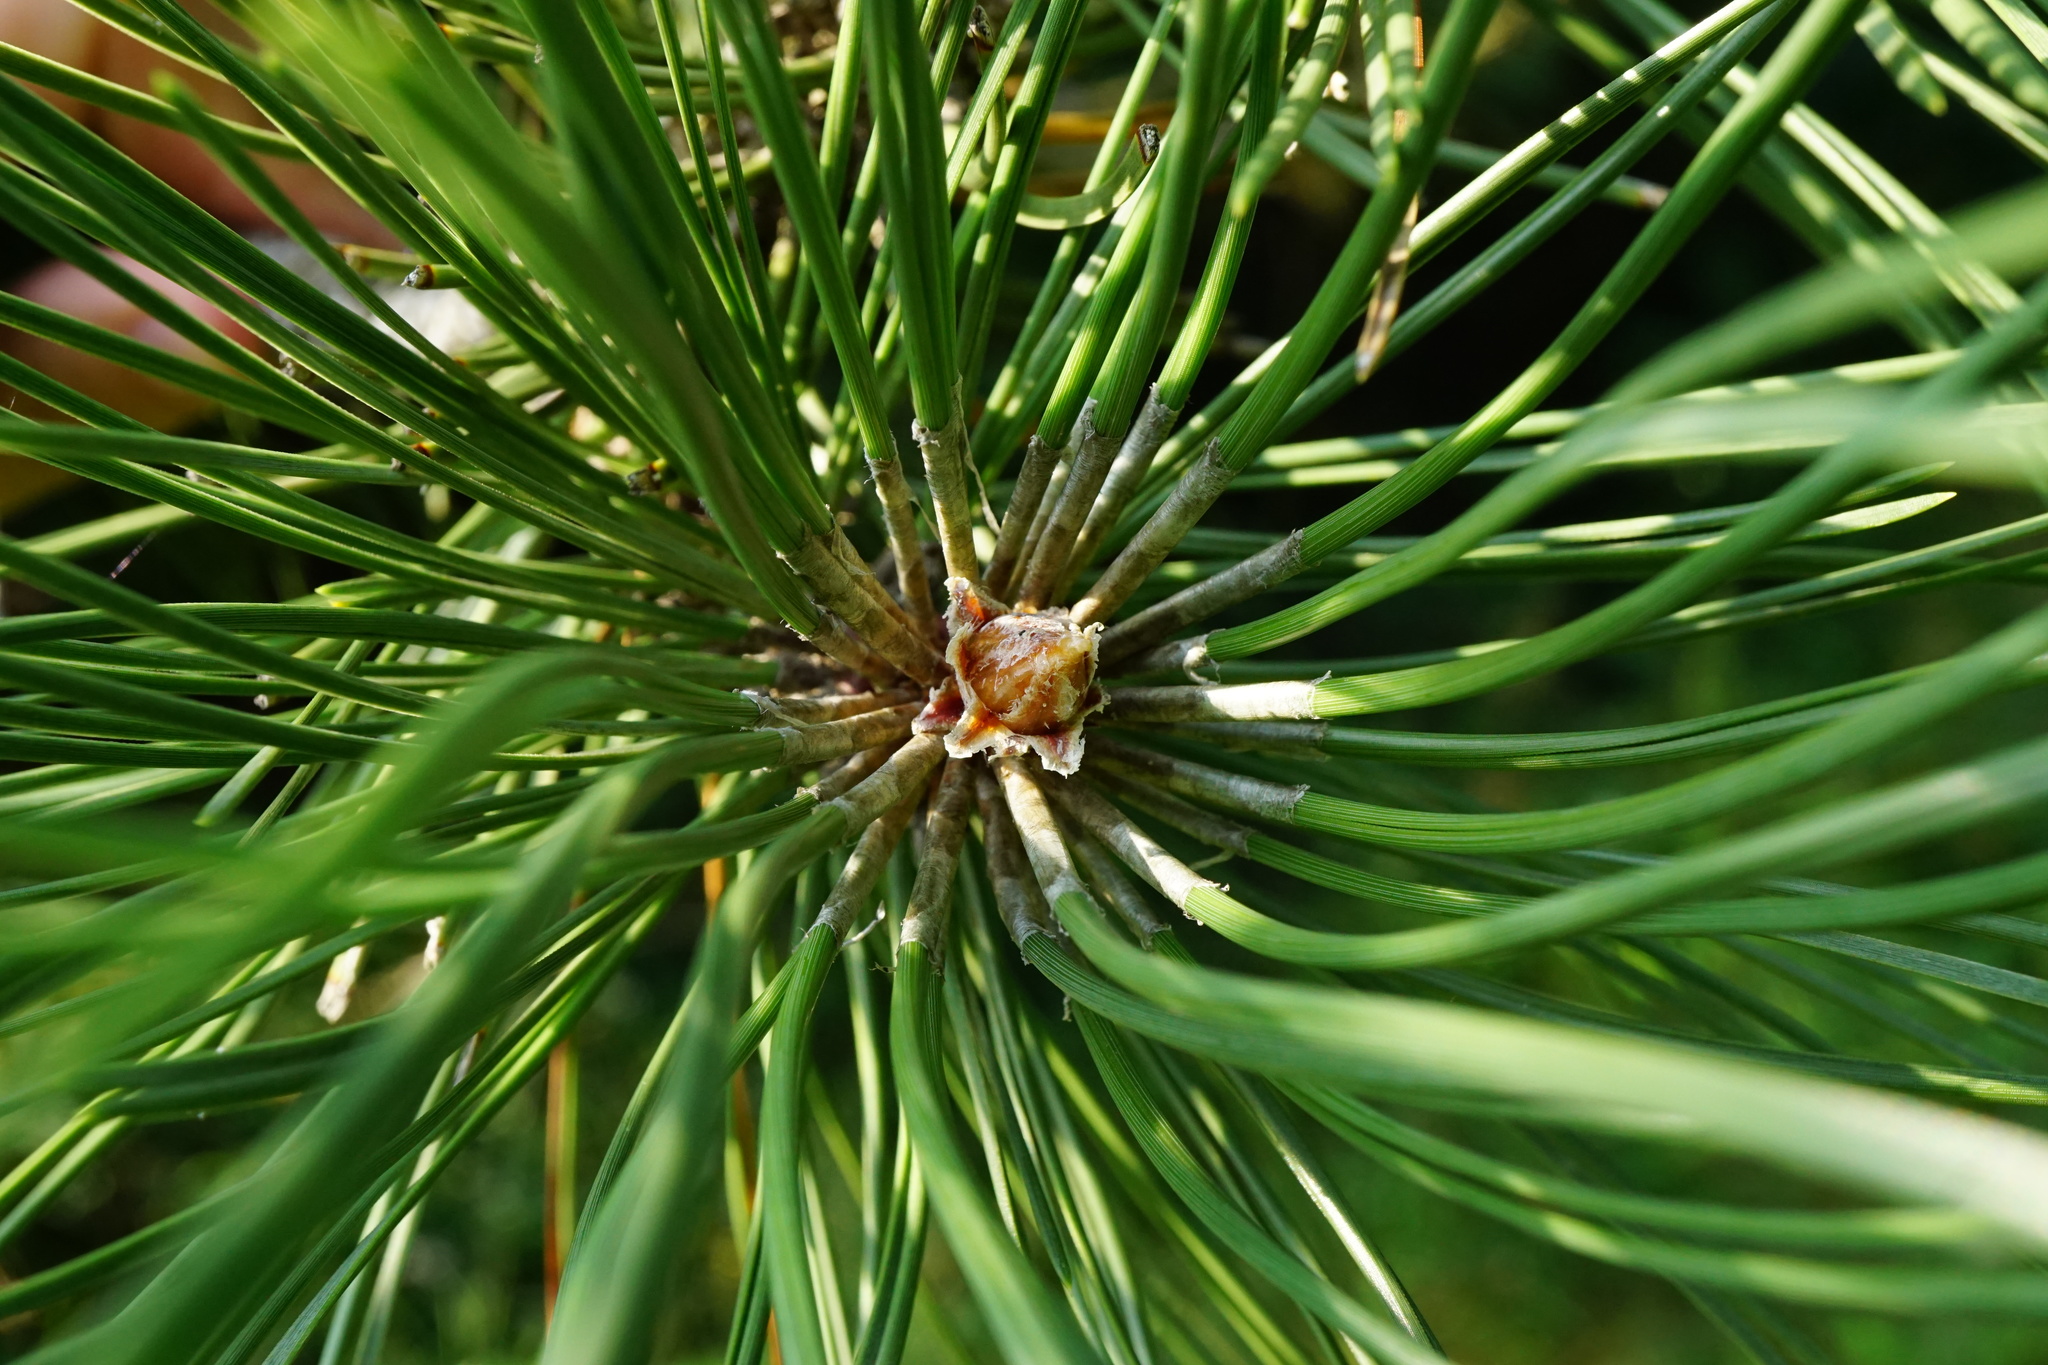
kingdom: Plantae
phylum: Tracheophyta
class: Pinopsida
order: Pinales
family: Pinaceae
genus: Pinus
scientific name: Pinus nigra
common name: Austrian pine
